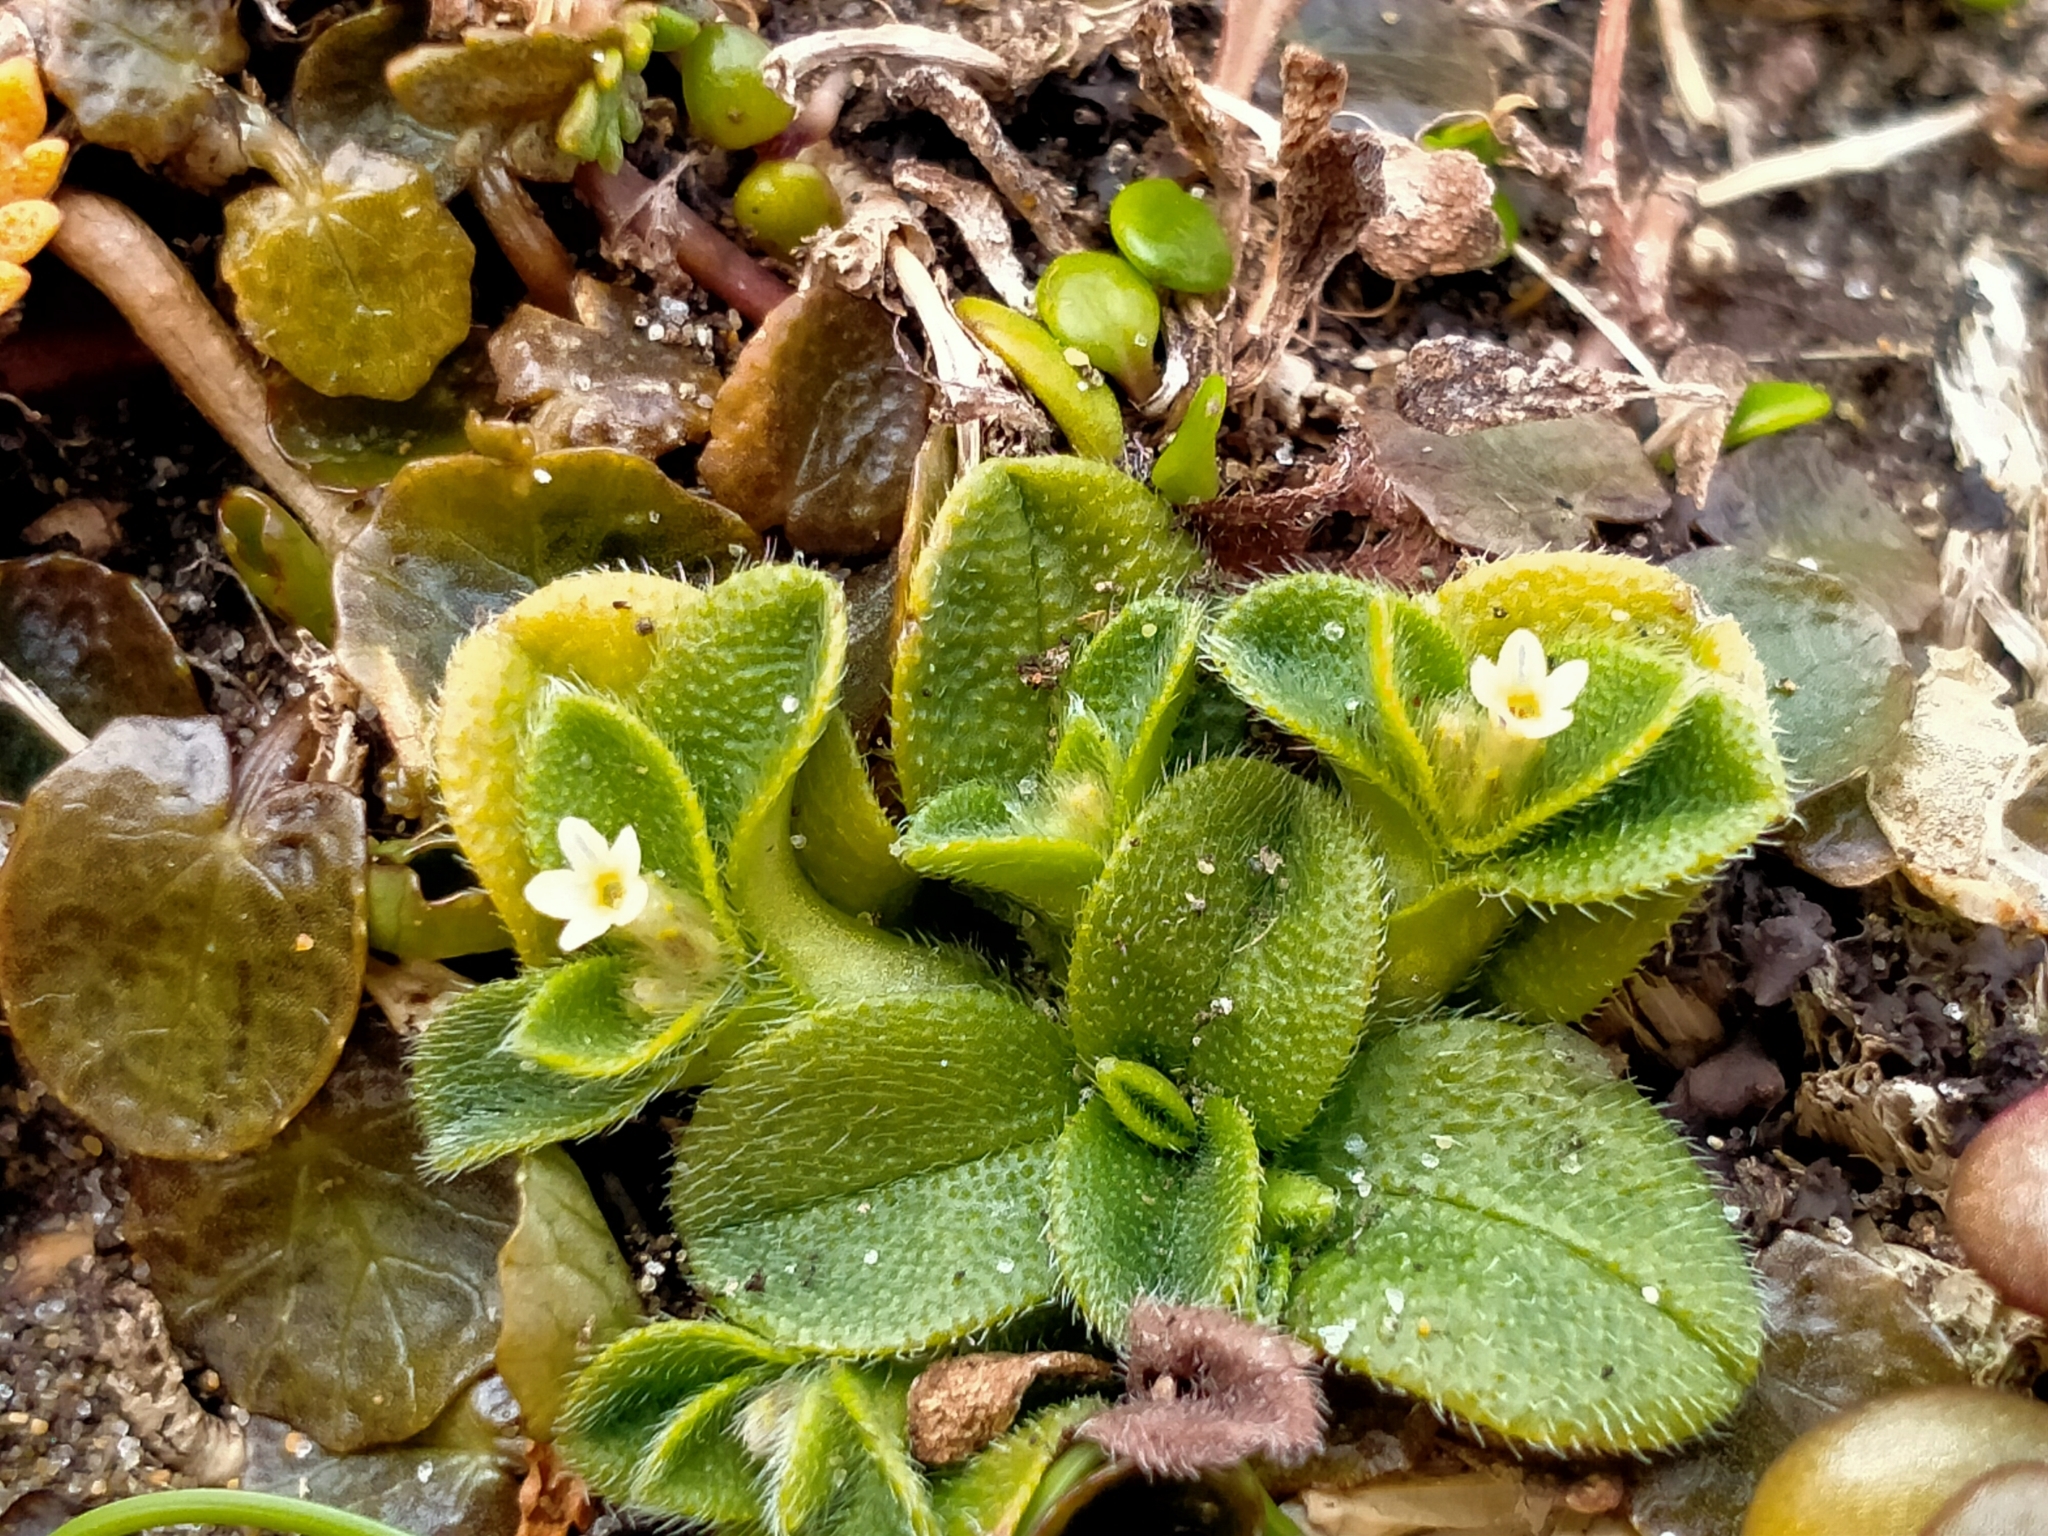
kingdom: Plantae
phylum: Tracheophyta
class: Magnoliopsida
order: Boraginales
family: Boraginaceae
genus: Myosotis
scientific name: Myosotis antarctica
